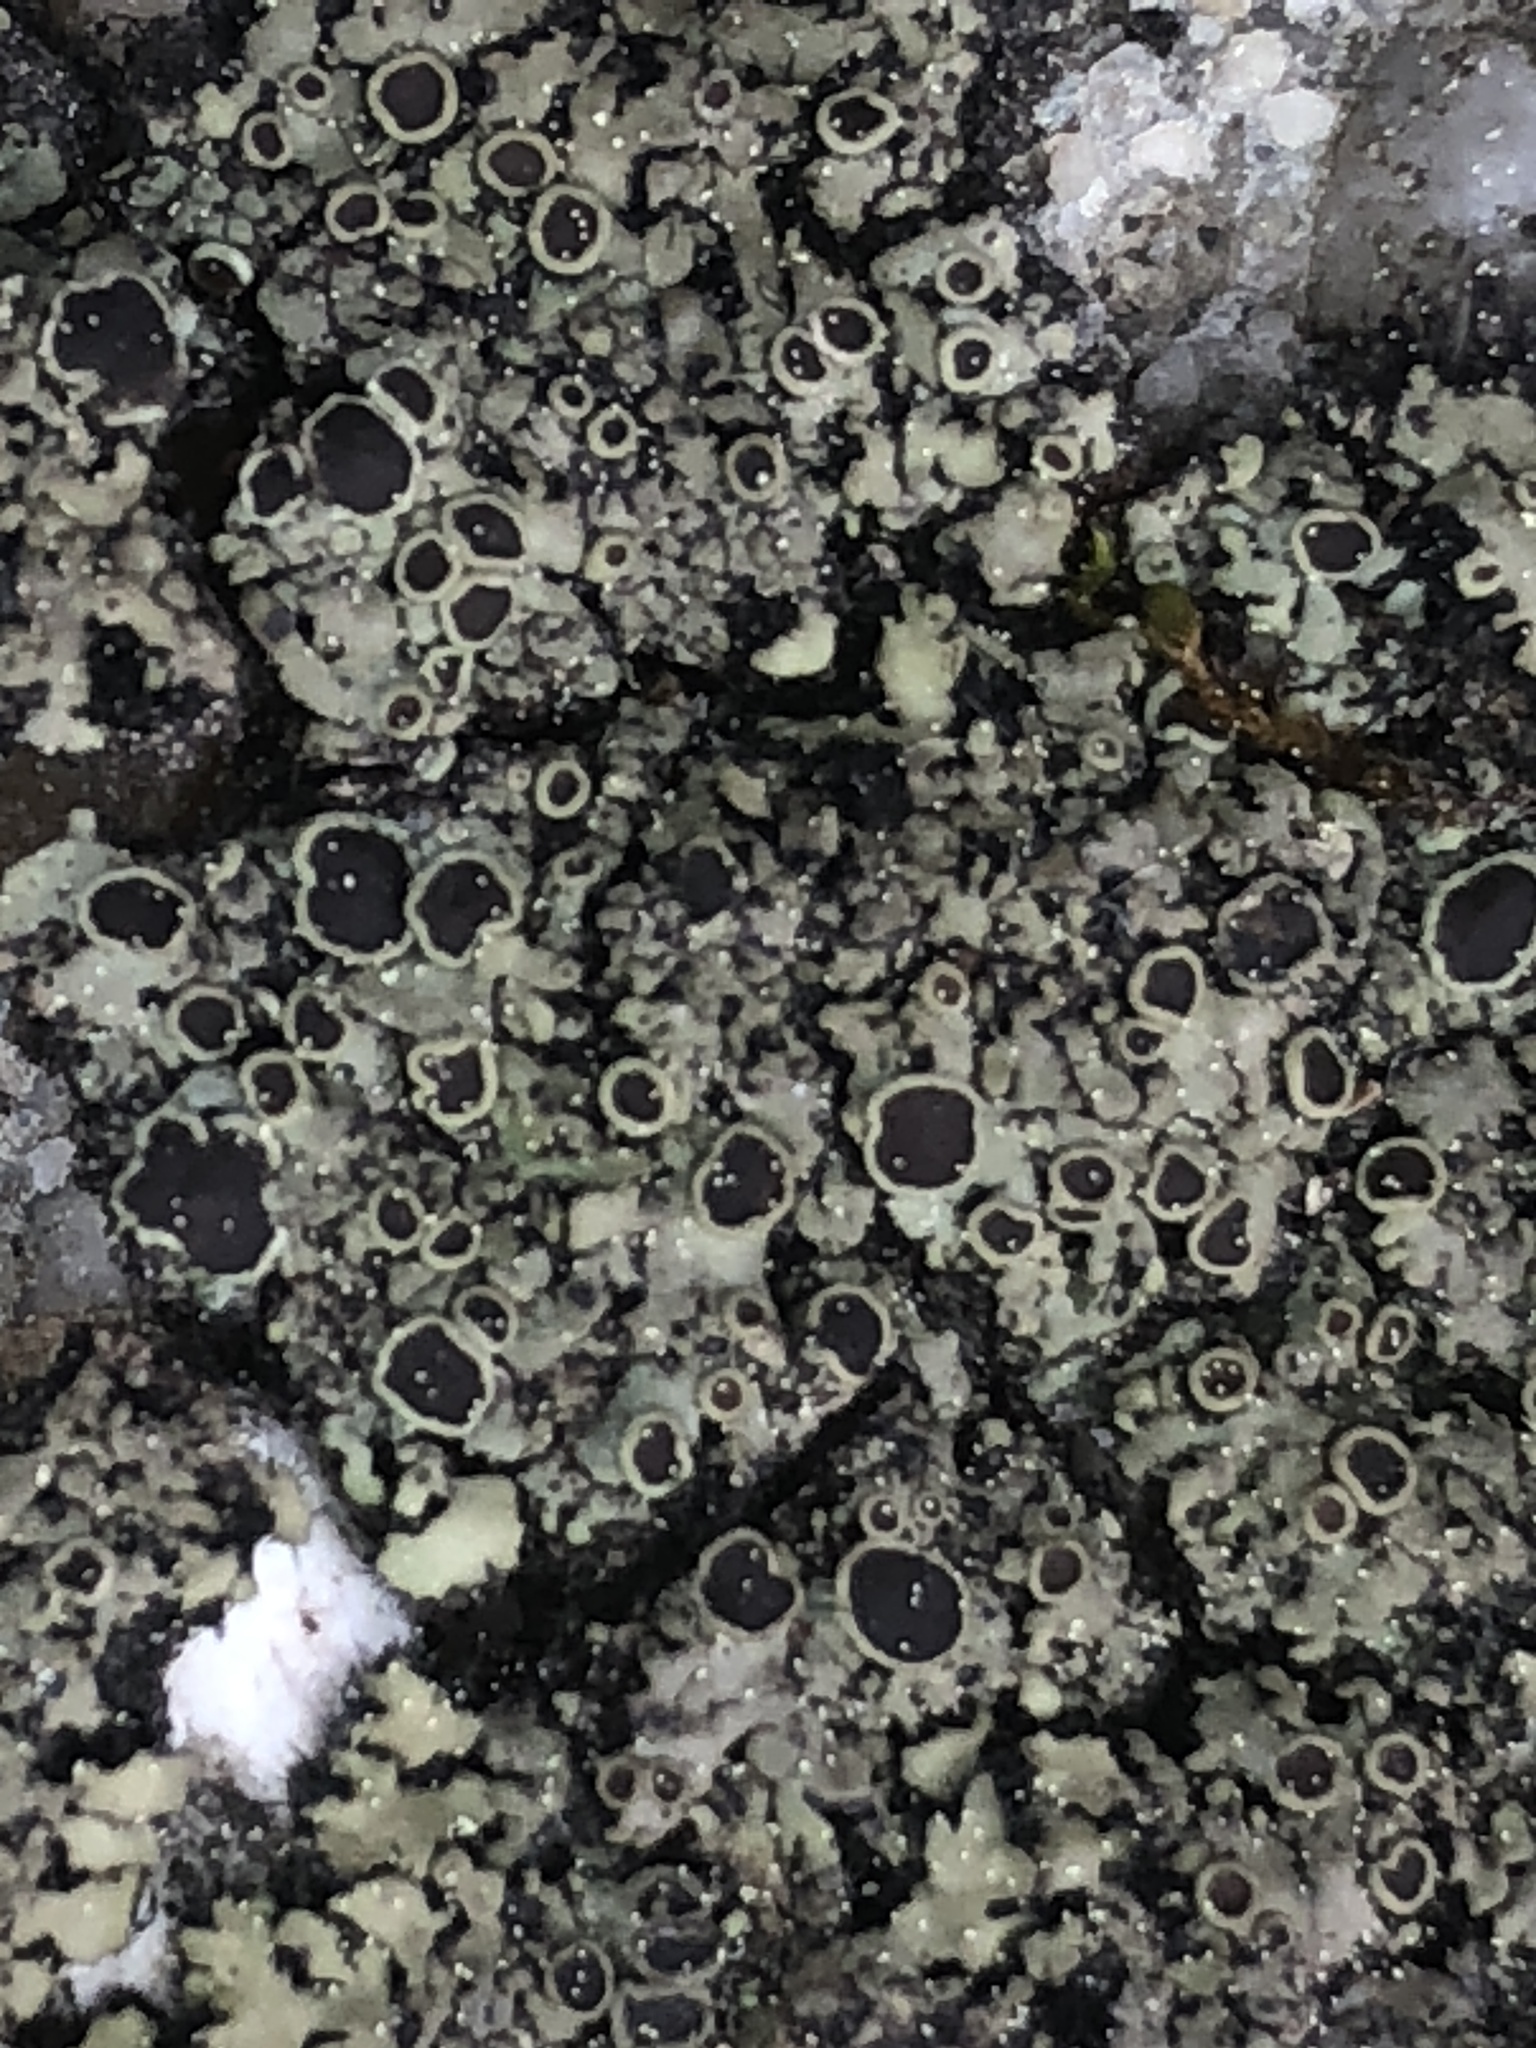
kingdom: Fungi
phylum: Ascomycota
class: Lecanoromycetes
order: Caliciales
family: Physciaceae
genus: Phaeophyscia
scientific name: Phaeophyscia ciliata
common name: Smooth shadow lichen
